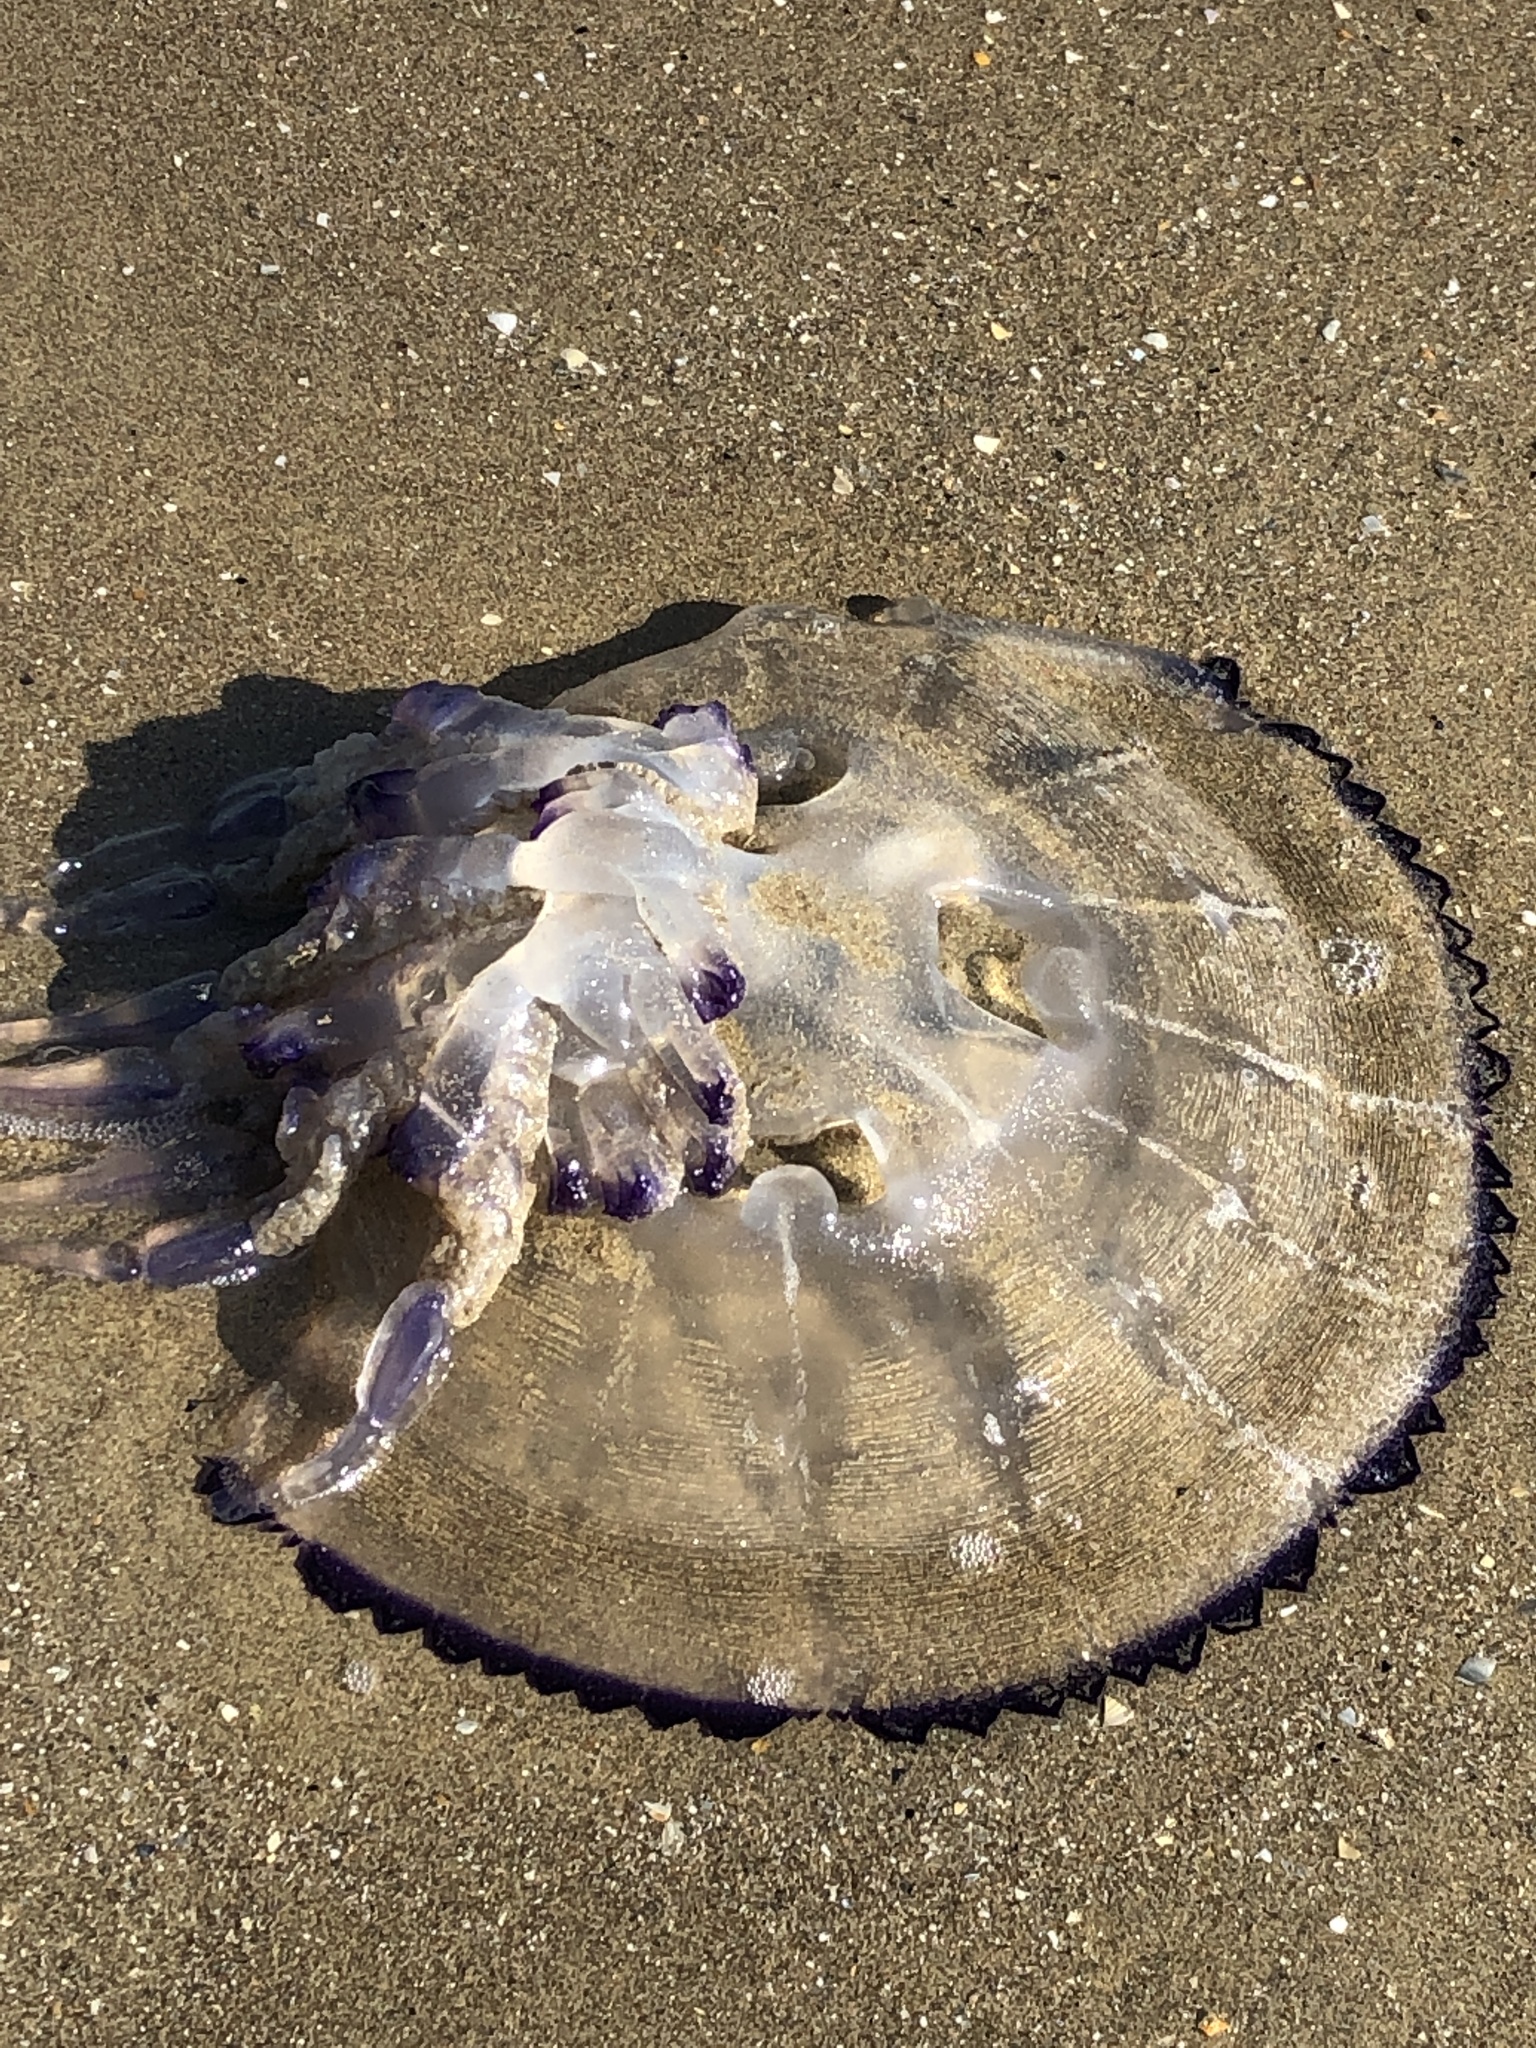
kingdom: Animalia
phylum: Cnidaria
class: Scyphozoa
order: Rhizostomeae
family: Rhizostomatidae
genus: Rhizostoma
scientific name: Rhizostoma pulmo
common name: Barrel jellyfish
